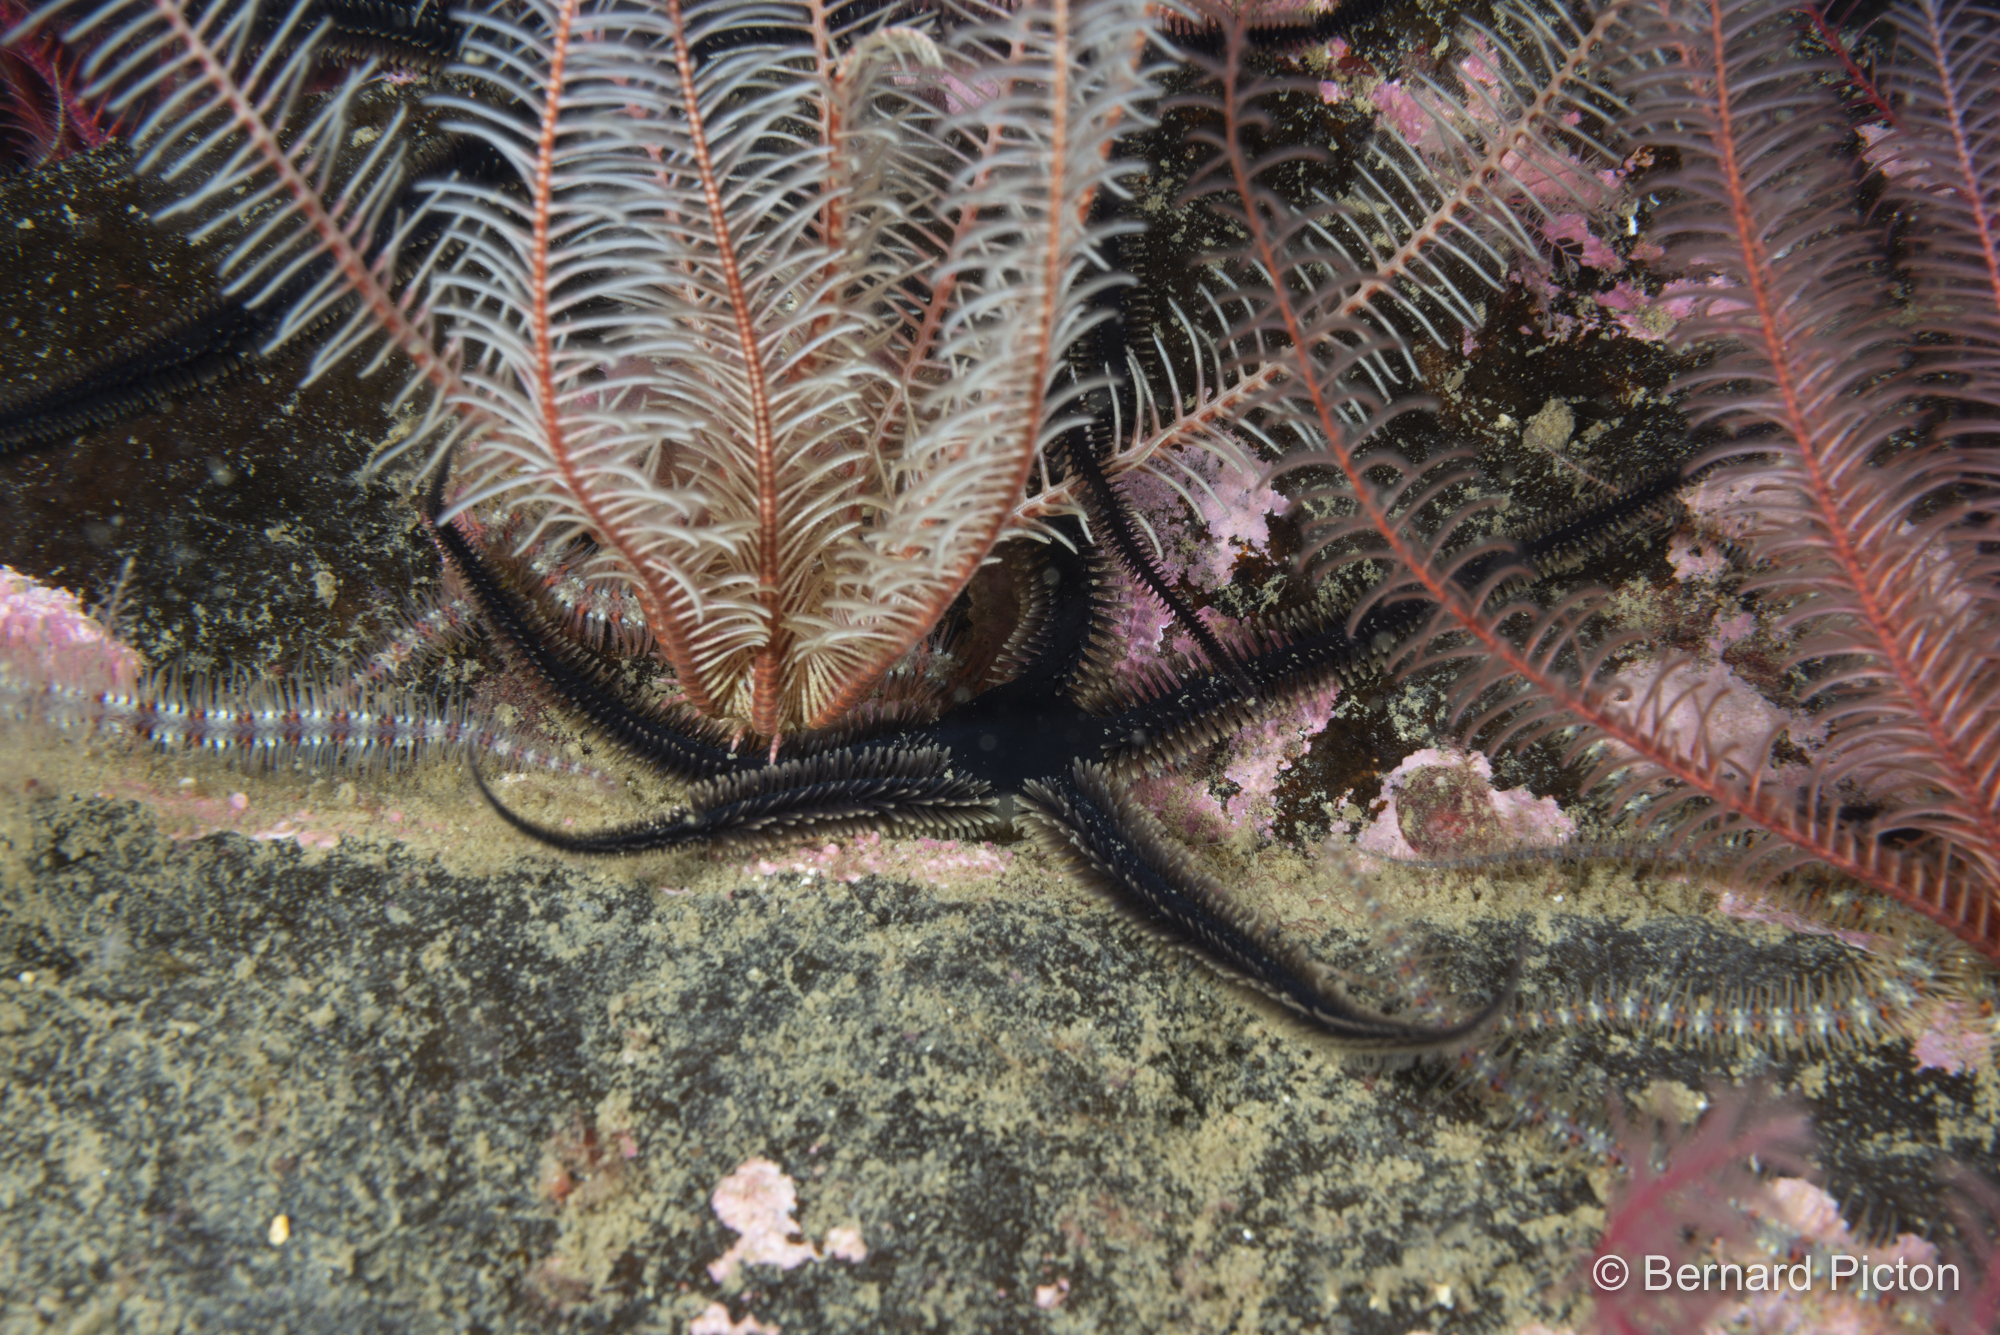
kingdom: Animalia
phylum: Echinodermata
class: Ophiuroidea
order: Ophiacanthida
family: Ophiotomidae
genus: Ophiocomina
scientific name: Ophiocomina nigra
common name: Black brittle star
